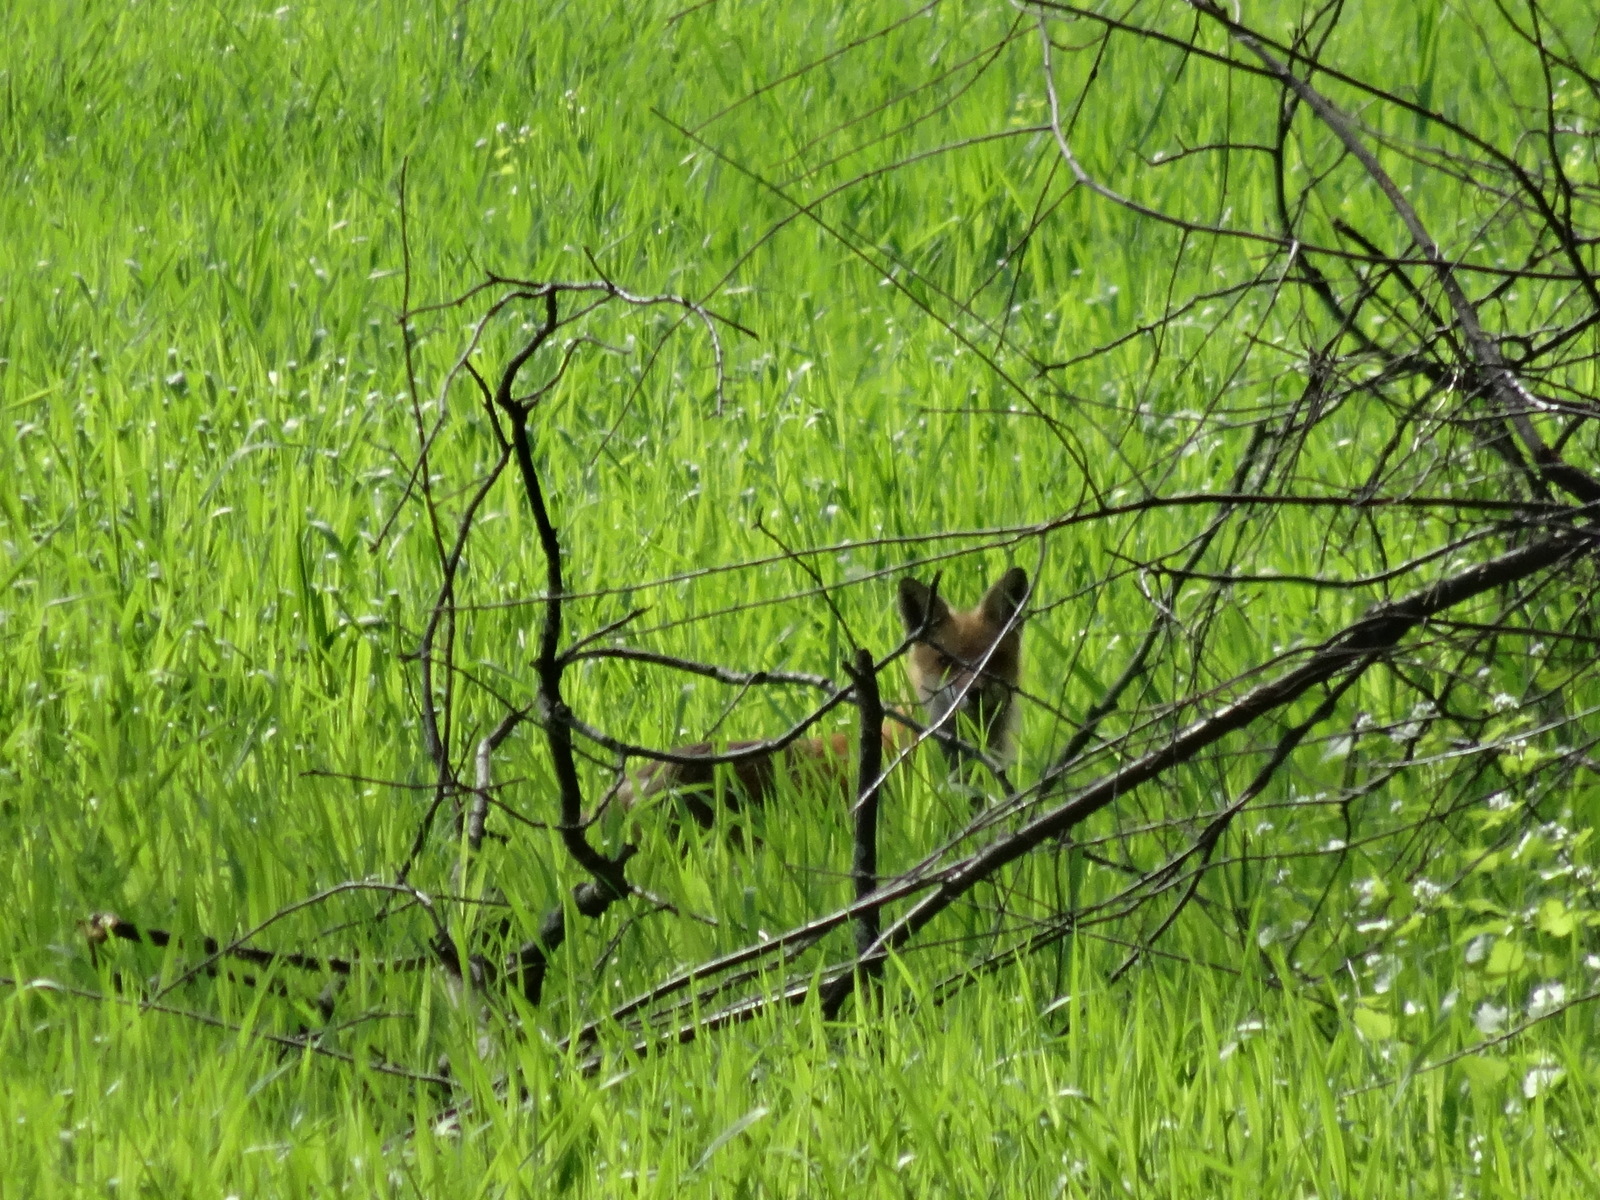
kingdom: Animalia
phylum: Chordata
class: Mammalia
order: Carnivora
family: Canidae
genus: Vulpes
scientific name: Vulpes vulpes
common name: Red fox
